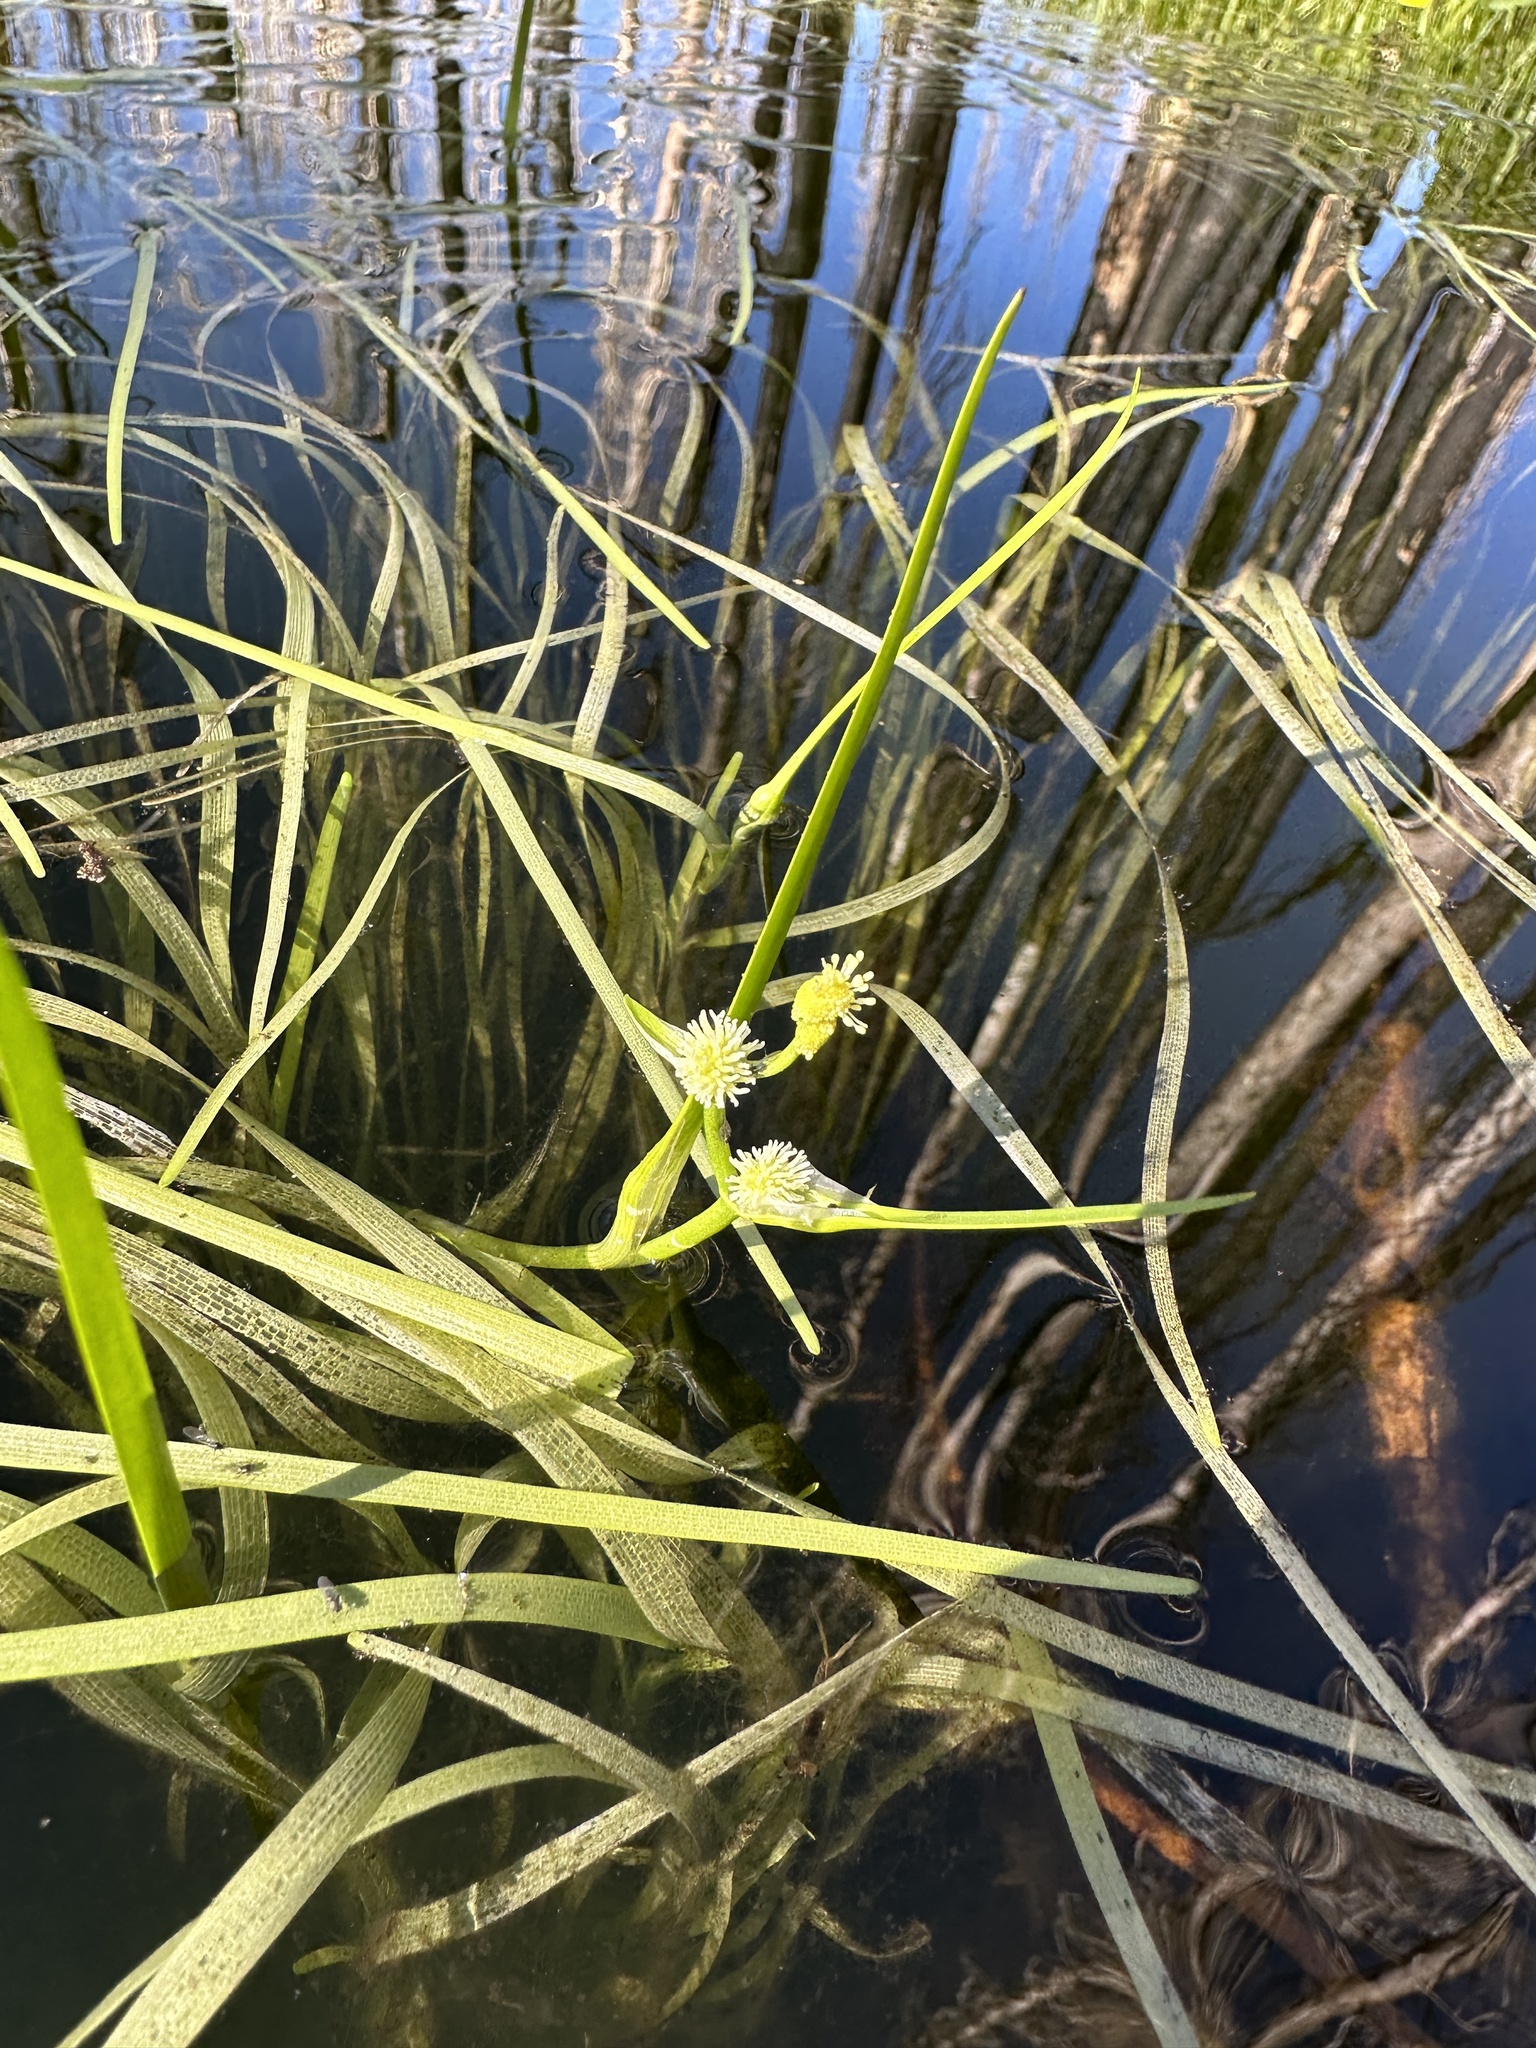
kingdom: Plantae
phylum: Tracheophyta
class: Liliopsida
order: Poales
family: Typhaceae
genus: Sparganium
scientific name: Sparganium natans
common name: Least bur-reed
